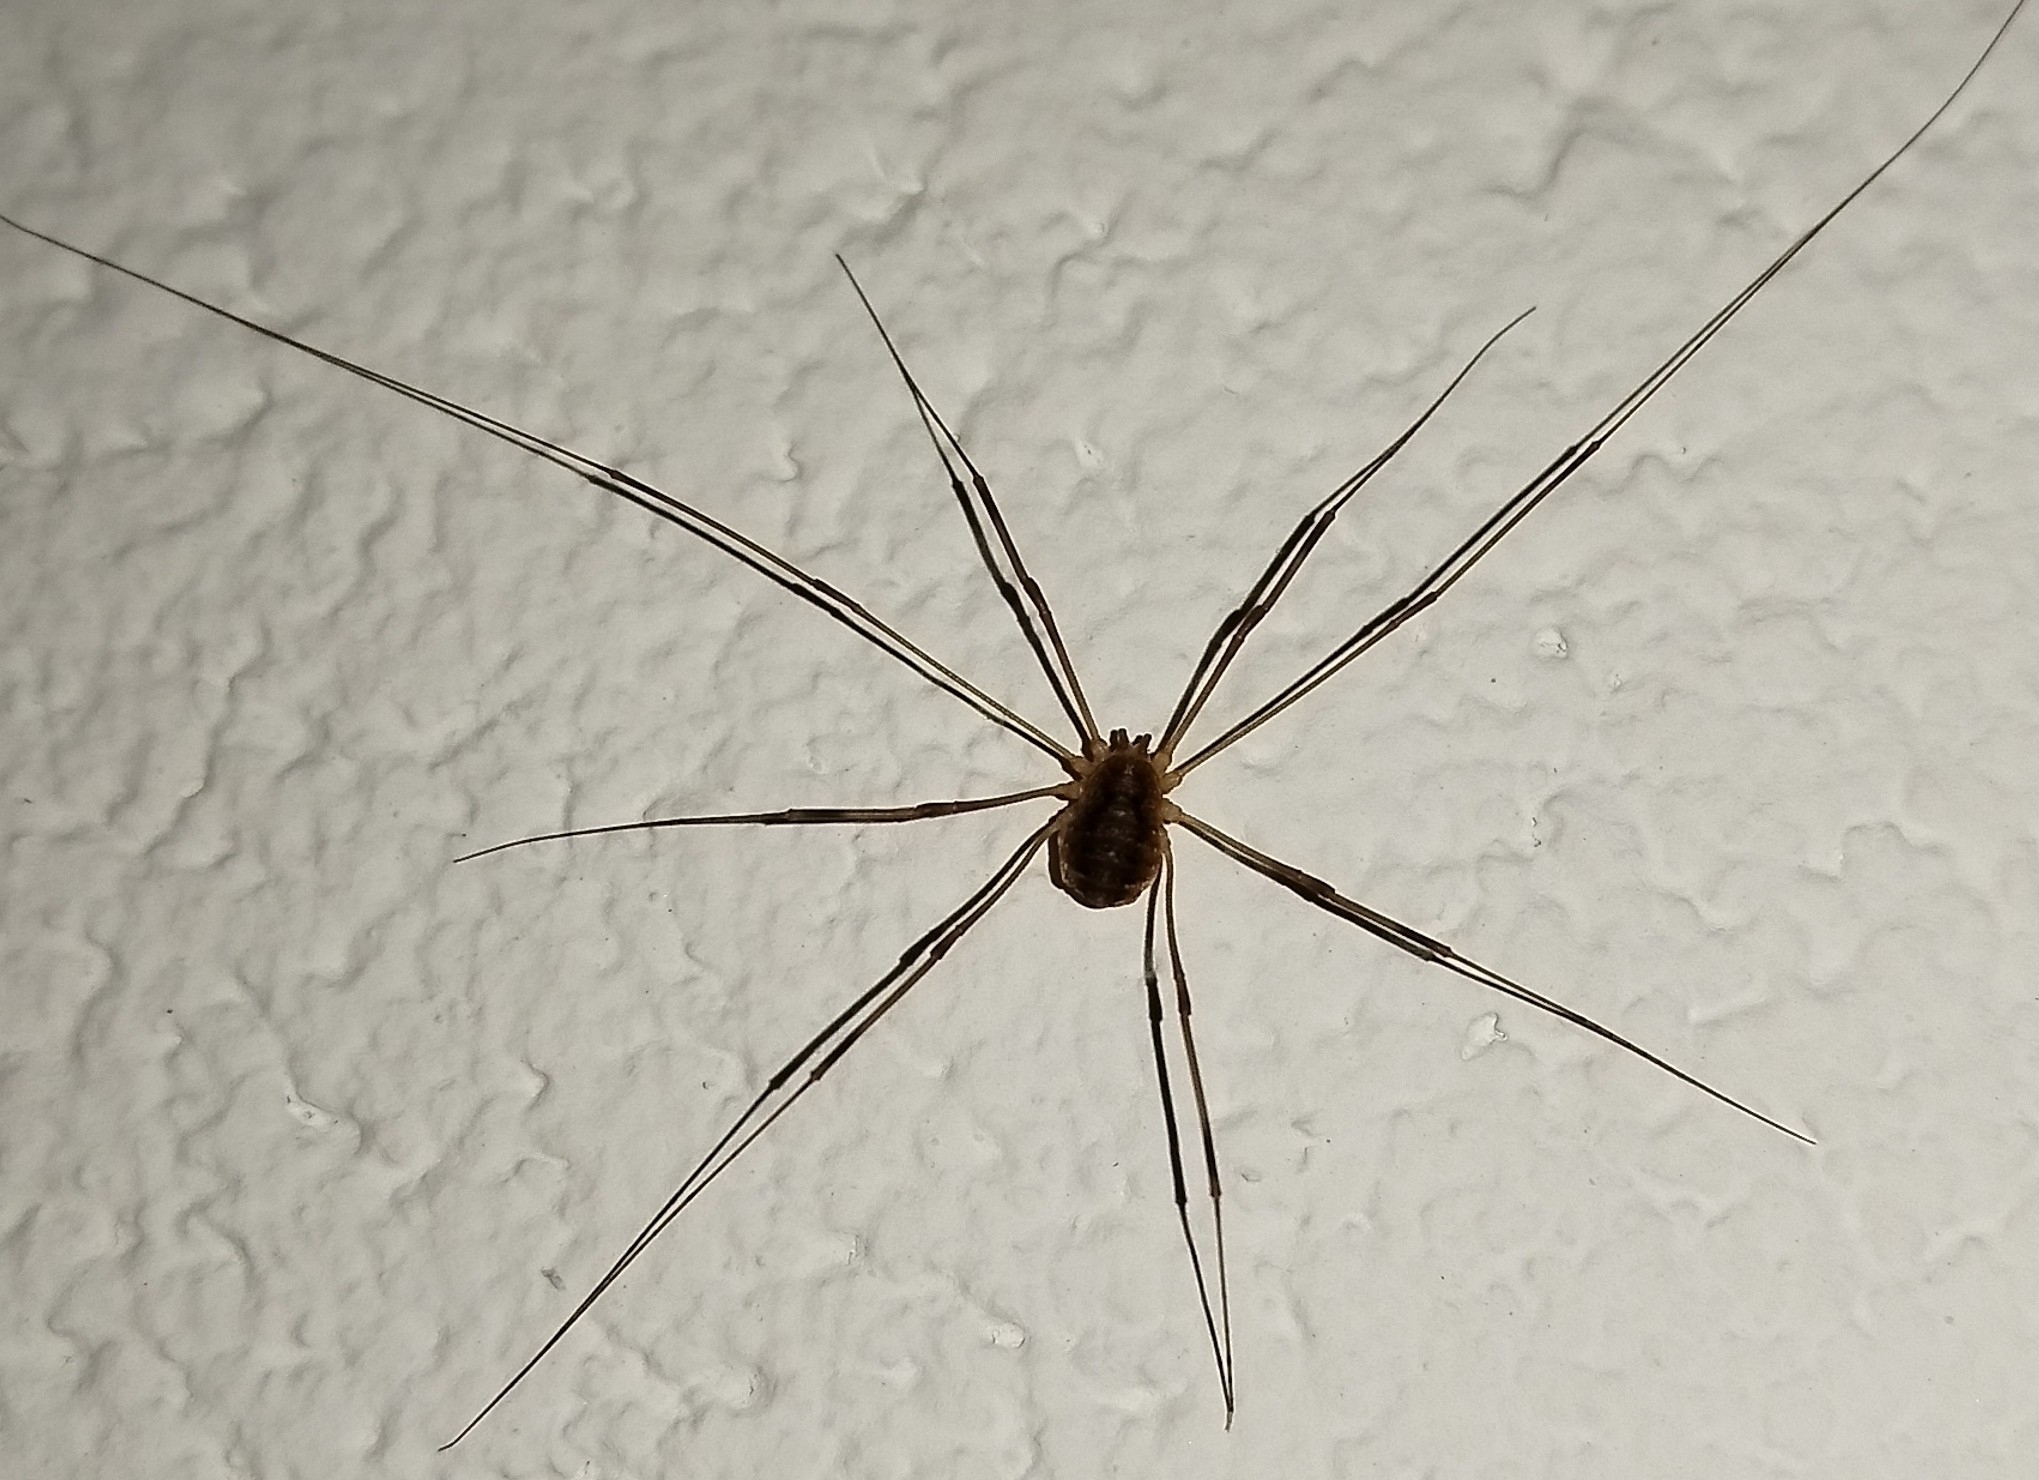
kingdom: Animalia
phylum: Arthropoda
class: Arachnida
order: Opiliones
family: Phalangiidae
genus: Opilio
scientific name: Opilio parietinus
